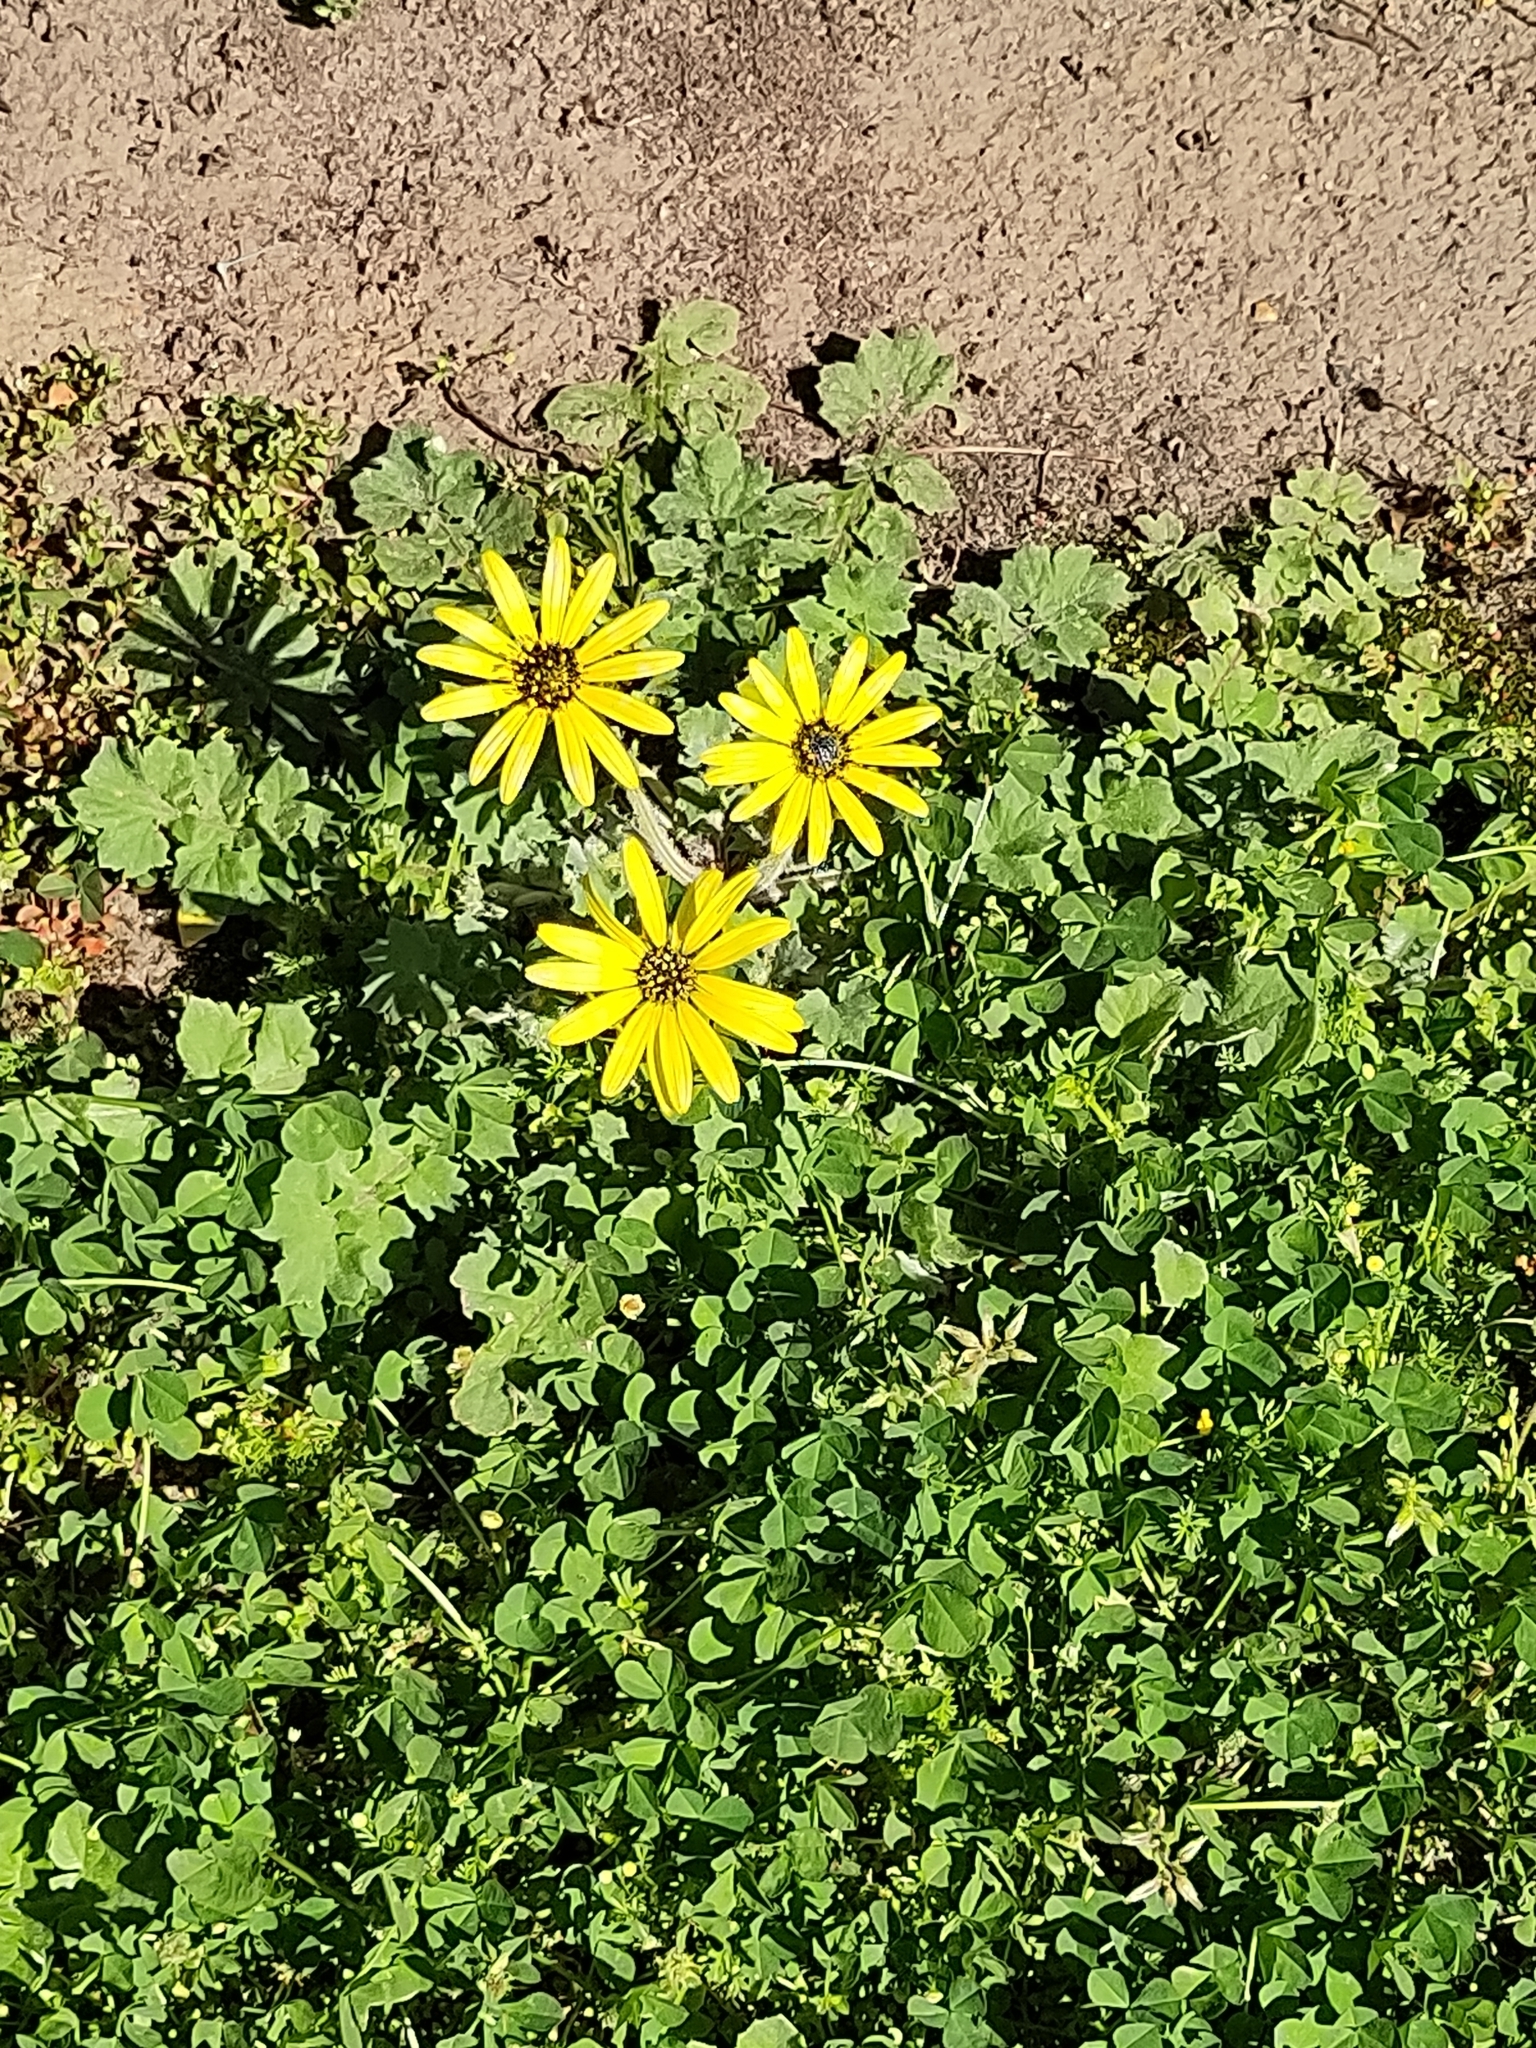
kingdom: Plantae
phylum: Tracheophyta
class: Magnoliopsida
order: Asterales
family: Asteraceae
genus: Arctotheca
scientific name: Arctotheca calendula
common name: Capeweed
